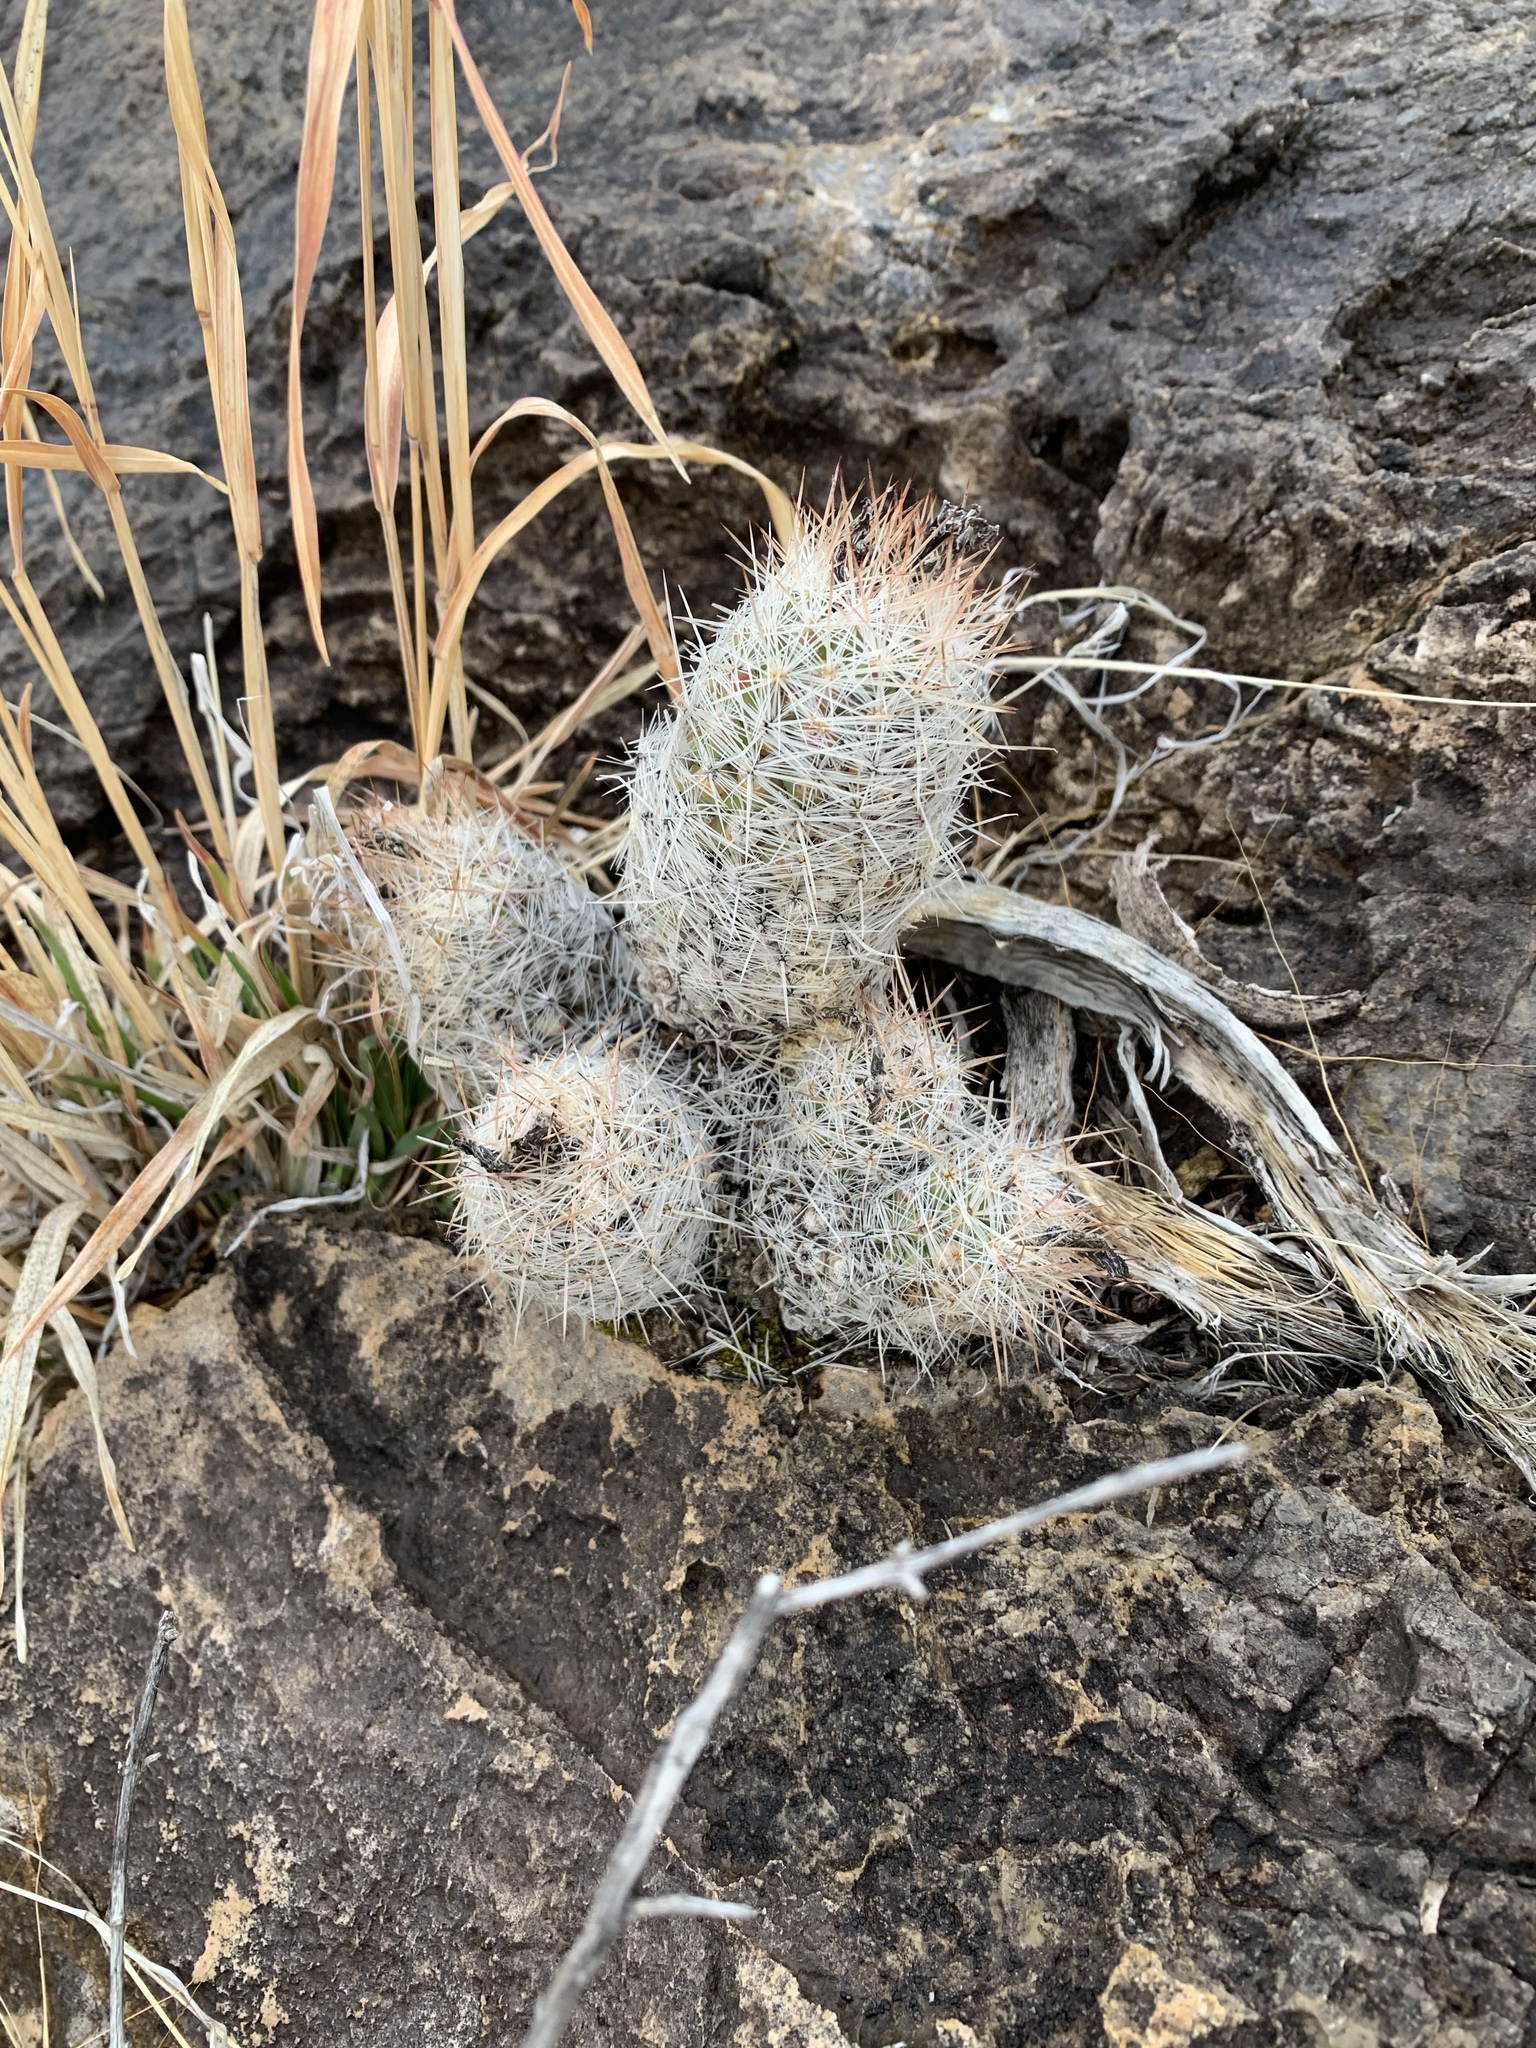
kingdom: Plantae
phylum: Tracheophyta
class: Magnoliopsida
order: Caryophyllales
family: Cactaceae
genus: Pelecyphora
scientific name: Pelecyphora tuberculosa
